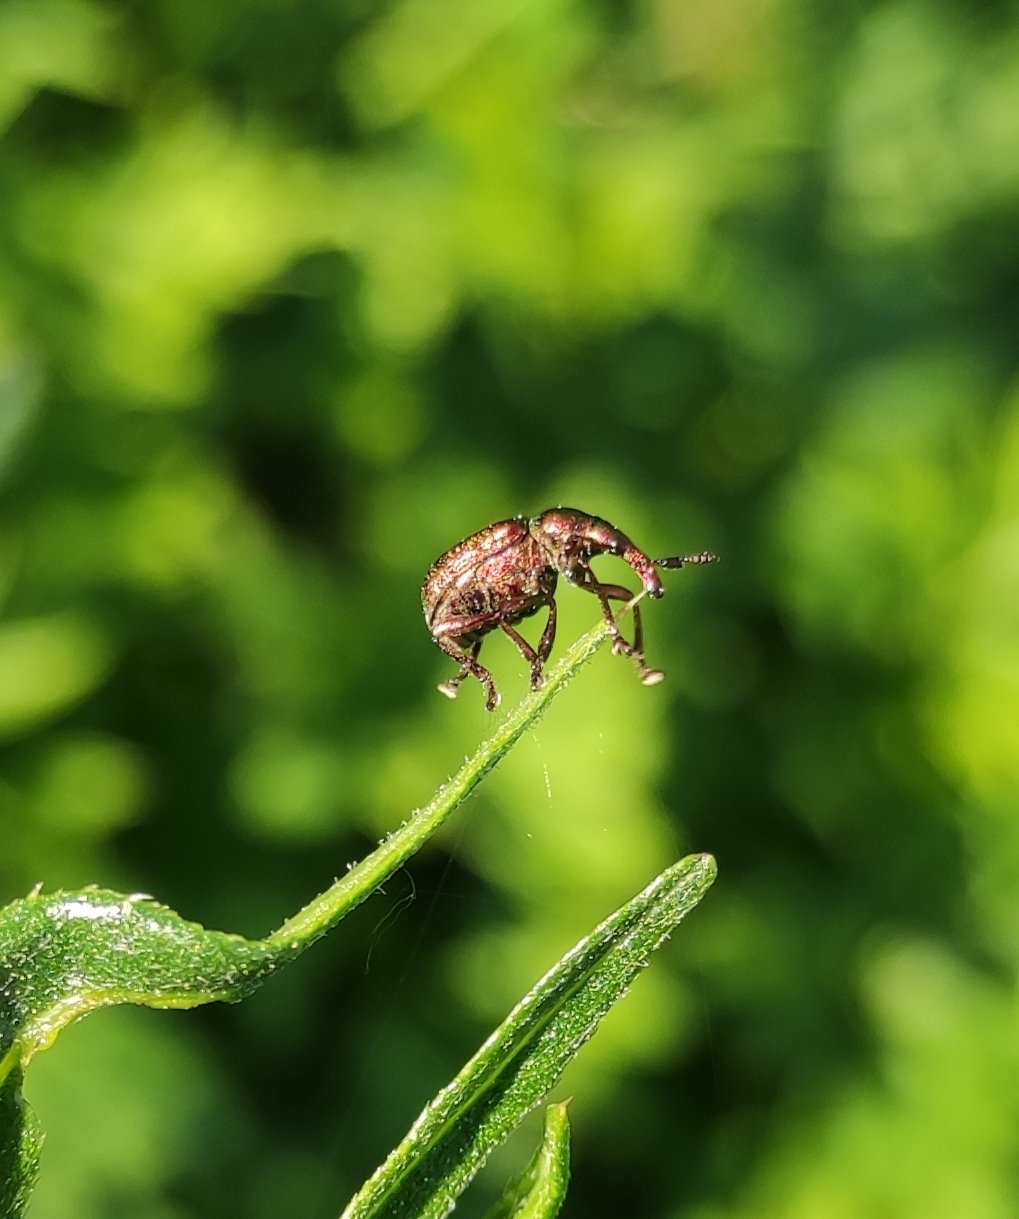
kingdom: Animalia
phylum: Arthropoda
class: Insecta
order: Coleoptera
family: Attelabidae
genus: Byctiscus
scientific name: Byctiscus rugosus
